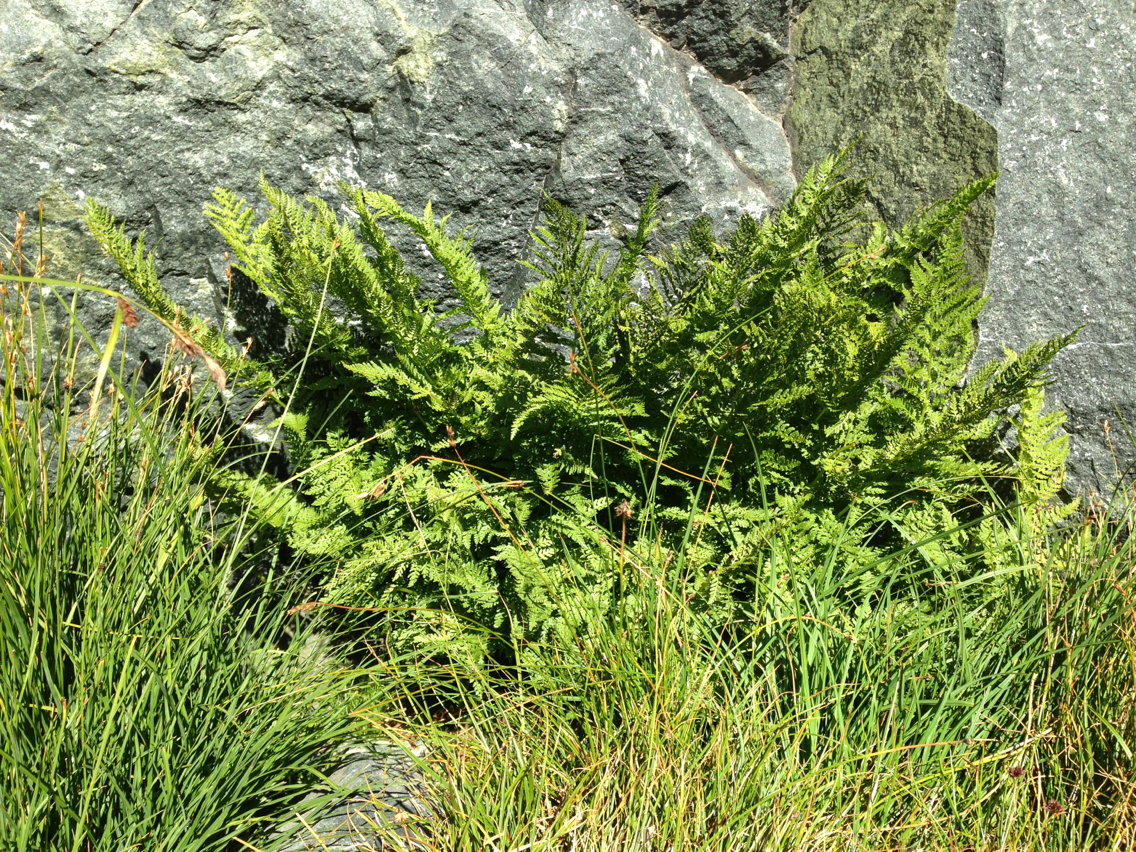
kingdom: Plantae
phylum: Tracheophyta
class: Polypodiopsida
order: Polypodiales
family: Athyriaceae
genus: Athyrium
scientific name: Athyrium americanum
